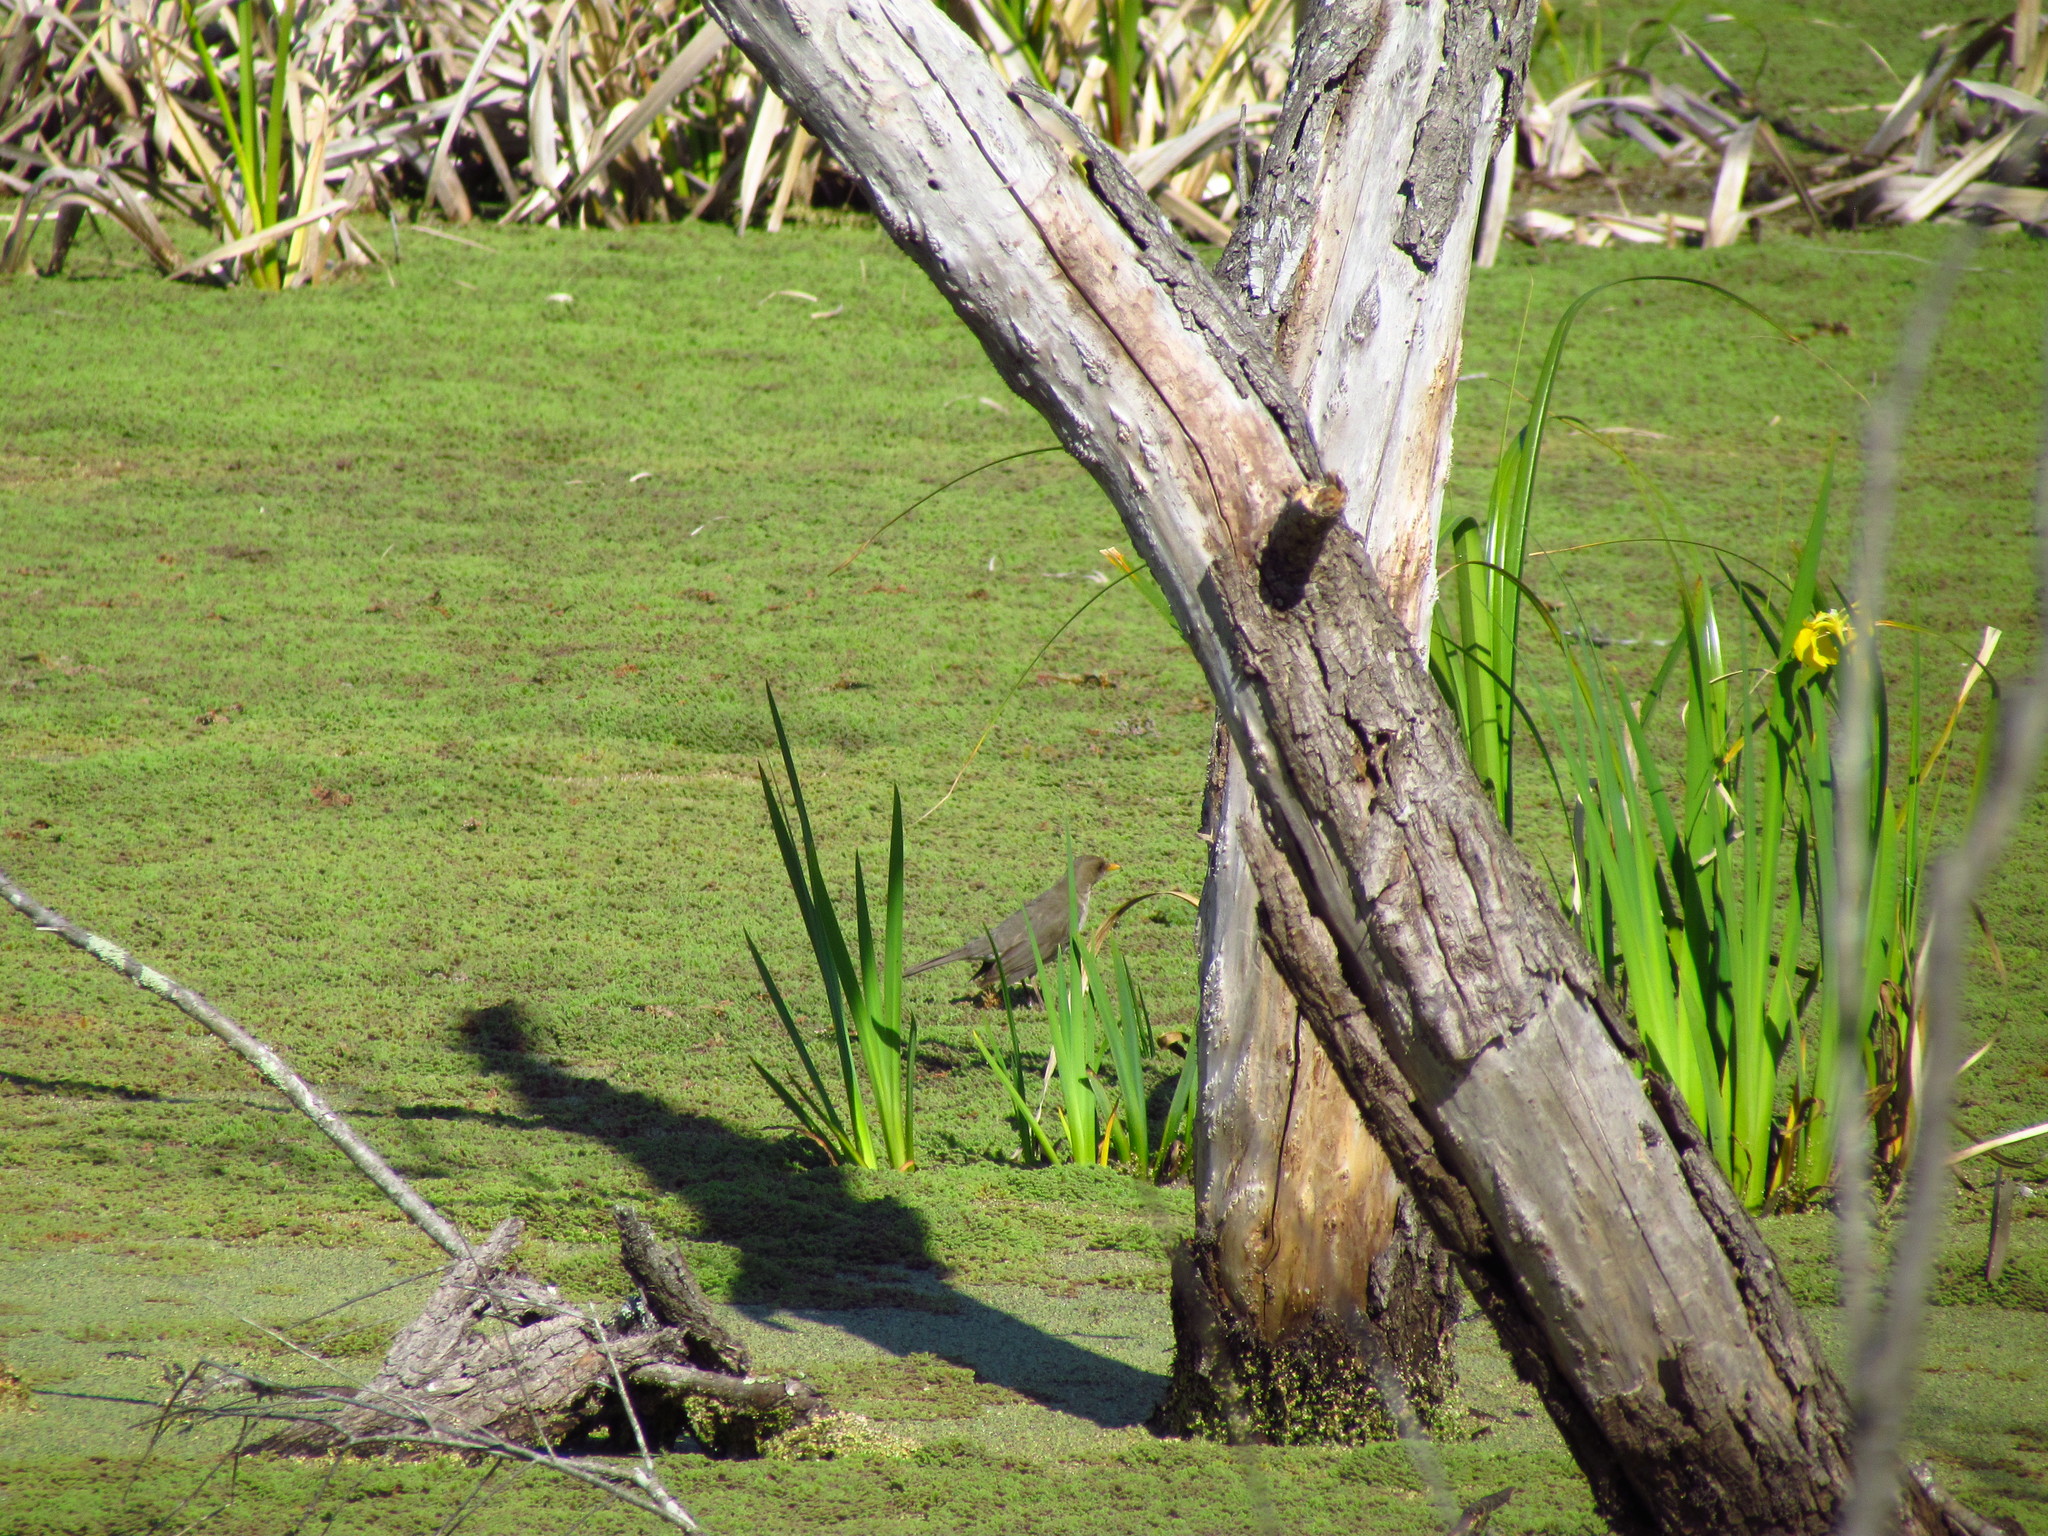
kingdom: Animalia
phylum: Chordata
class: Aves
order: Passeriformes
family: Turdidae
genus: Turdus
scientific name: Turdus amaurochalinus
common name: Creamy-bellied thrush
